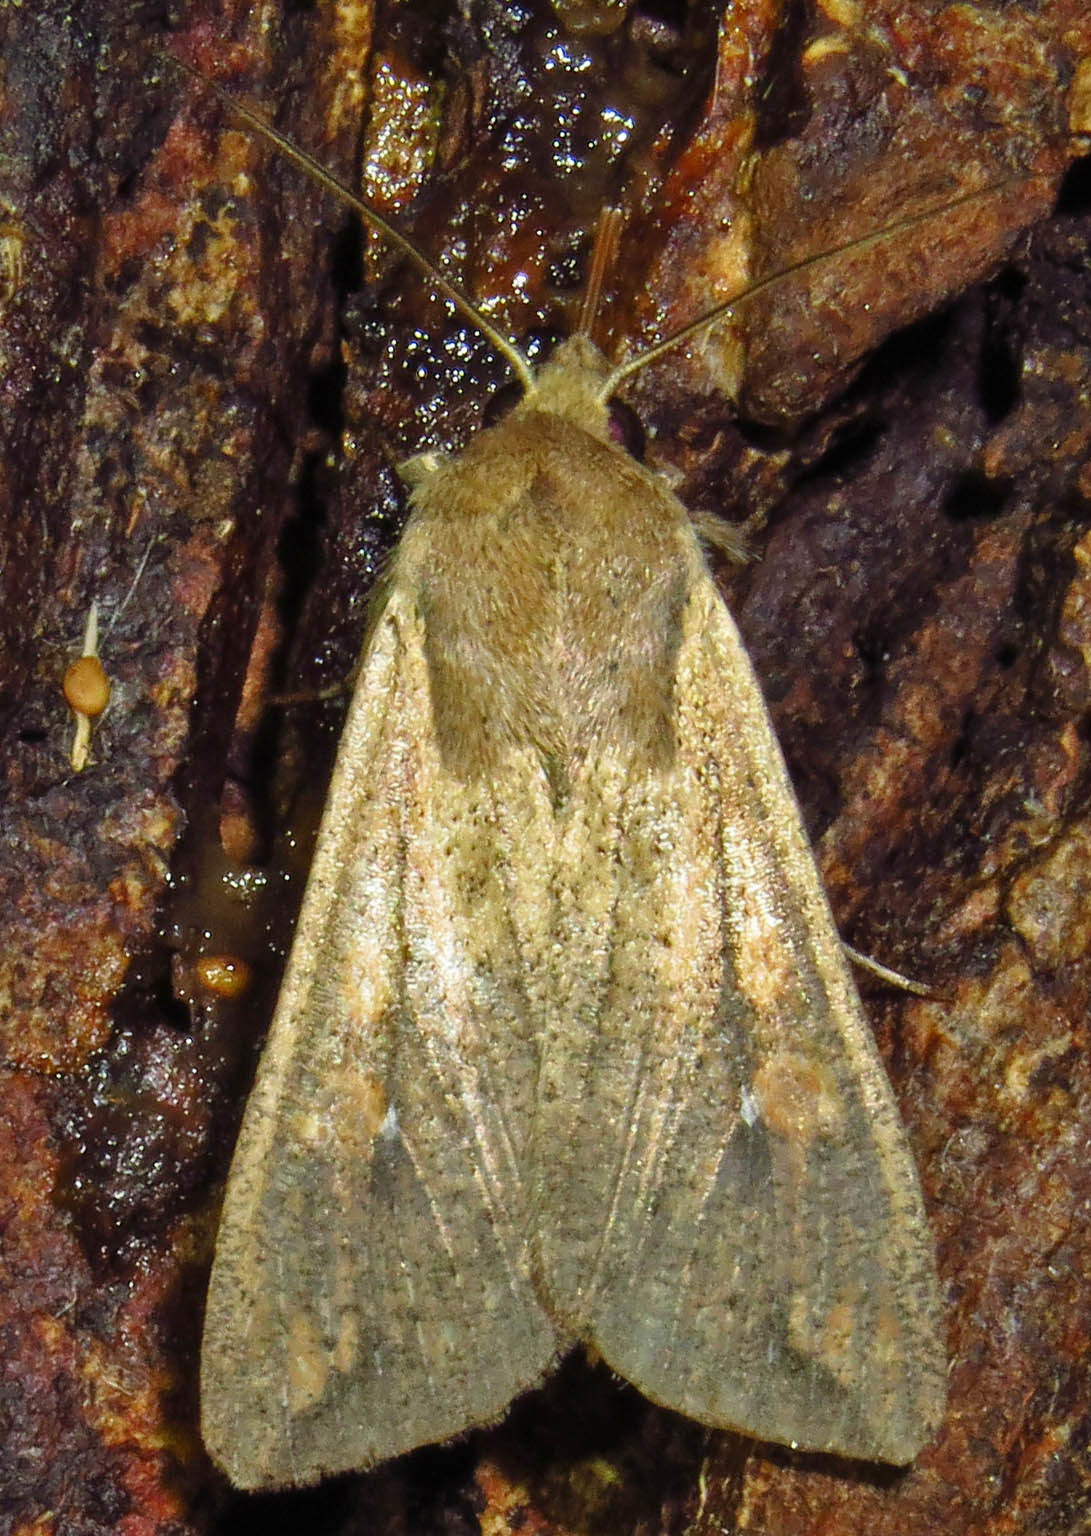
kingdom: Animalia
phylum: Arthropoda
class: Insecta
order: Lepidoptera
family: Noctuidae
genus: Mythimna
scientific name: Mythimna unipuncta
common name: White-speck
